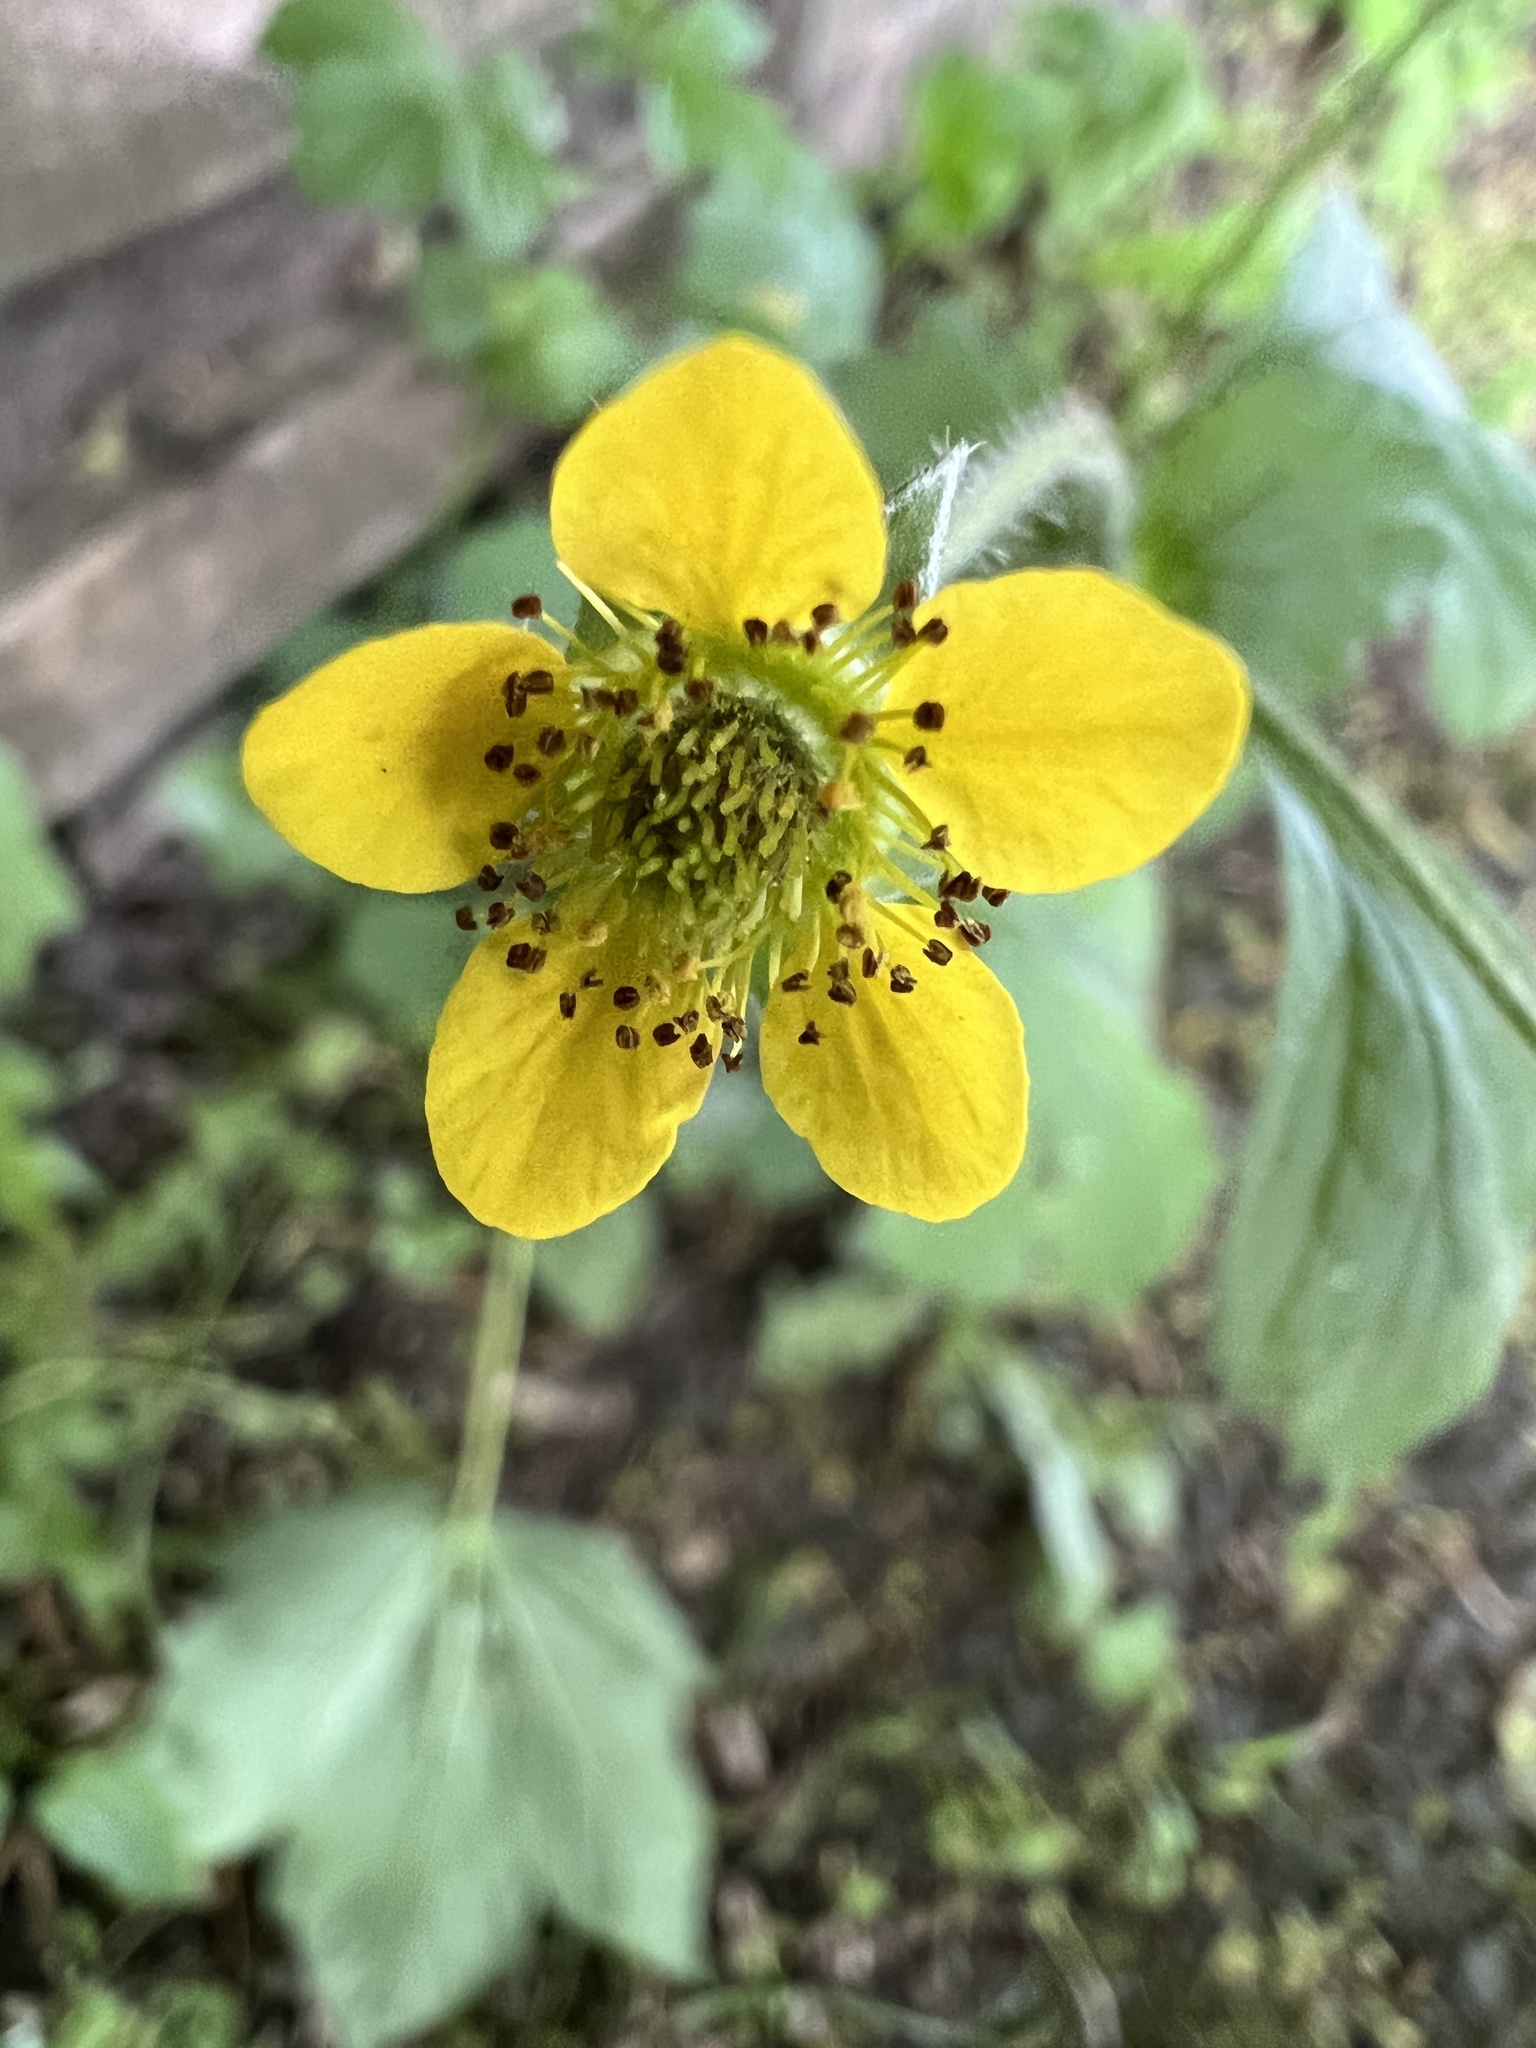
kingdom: Plantae
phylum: Tracheophyta
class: Magnoliopsida
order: Rosales
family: Rosaceae
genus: Geum
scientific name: Geum urbanum
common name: Wood avens
